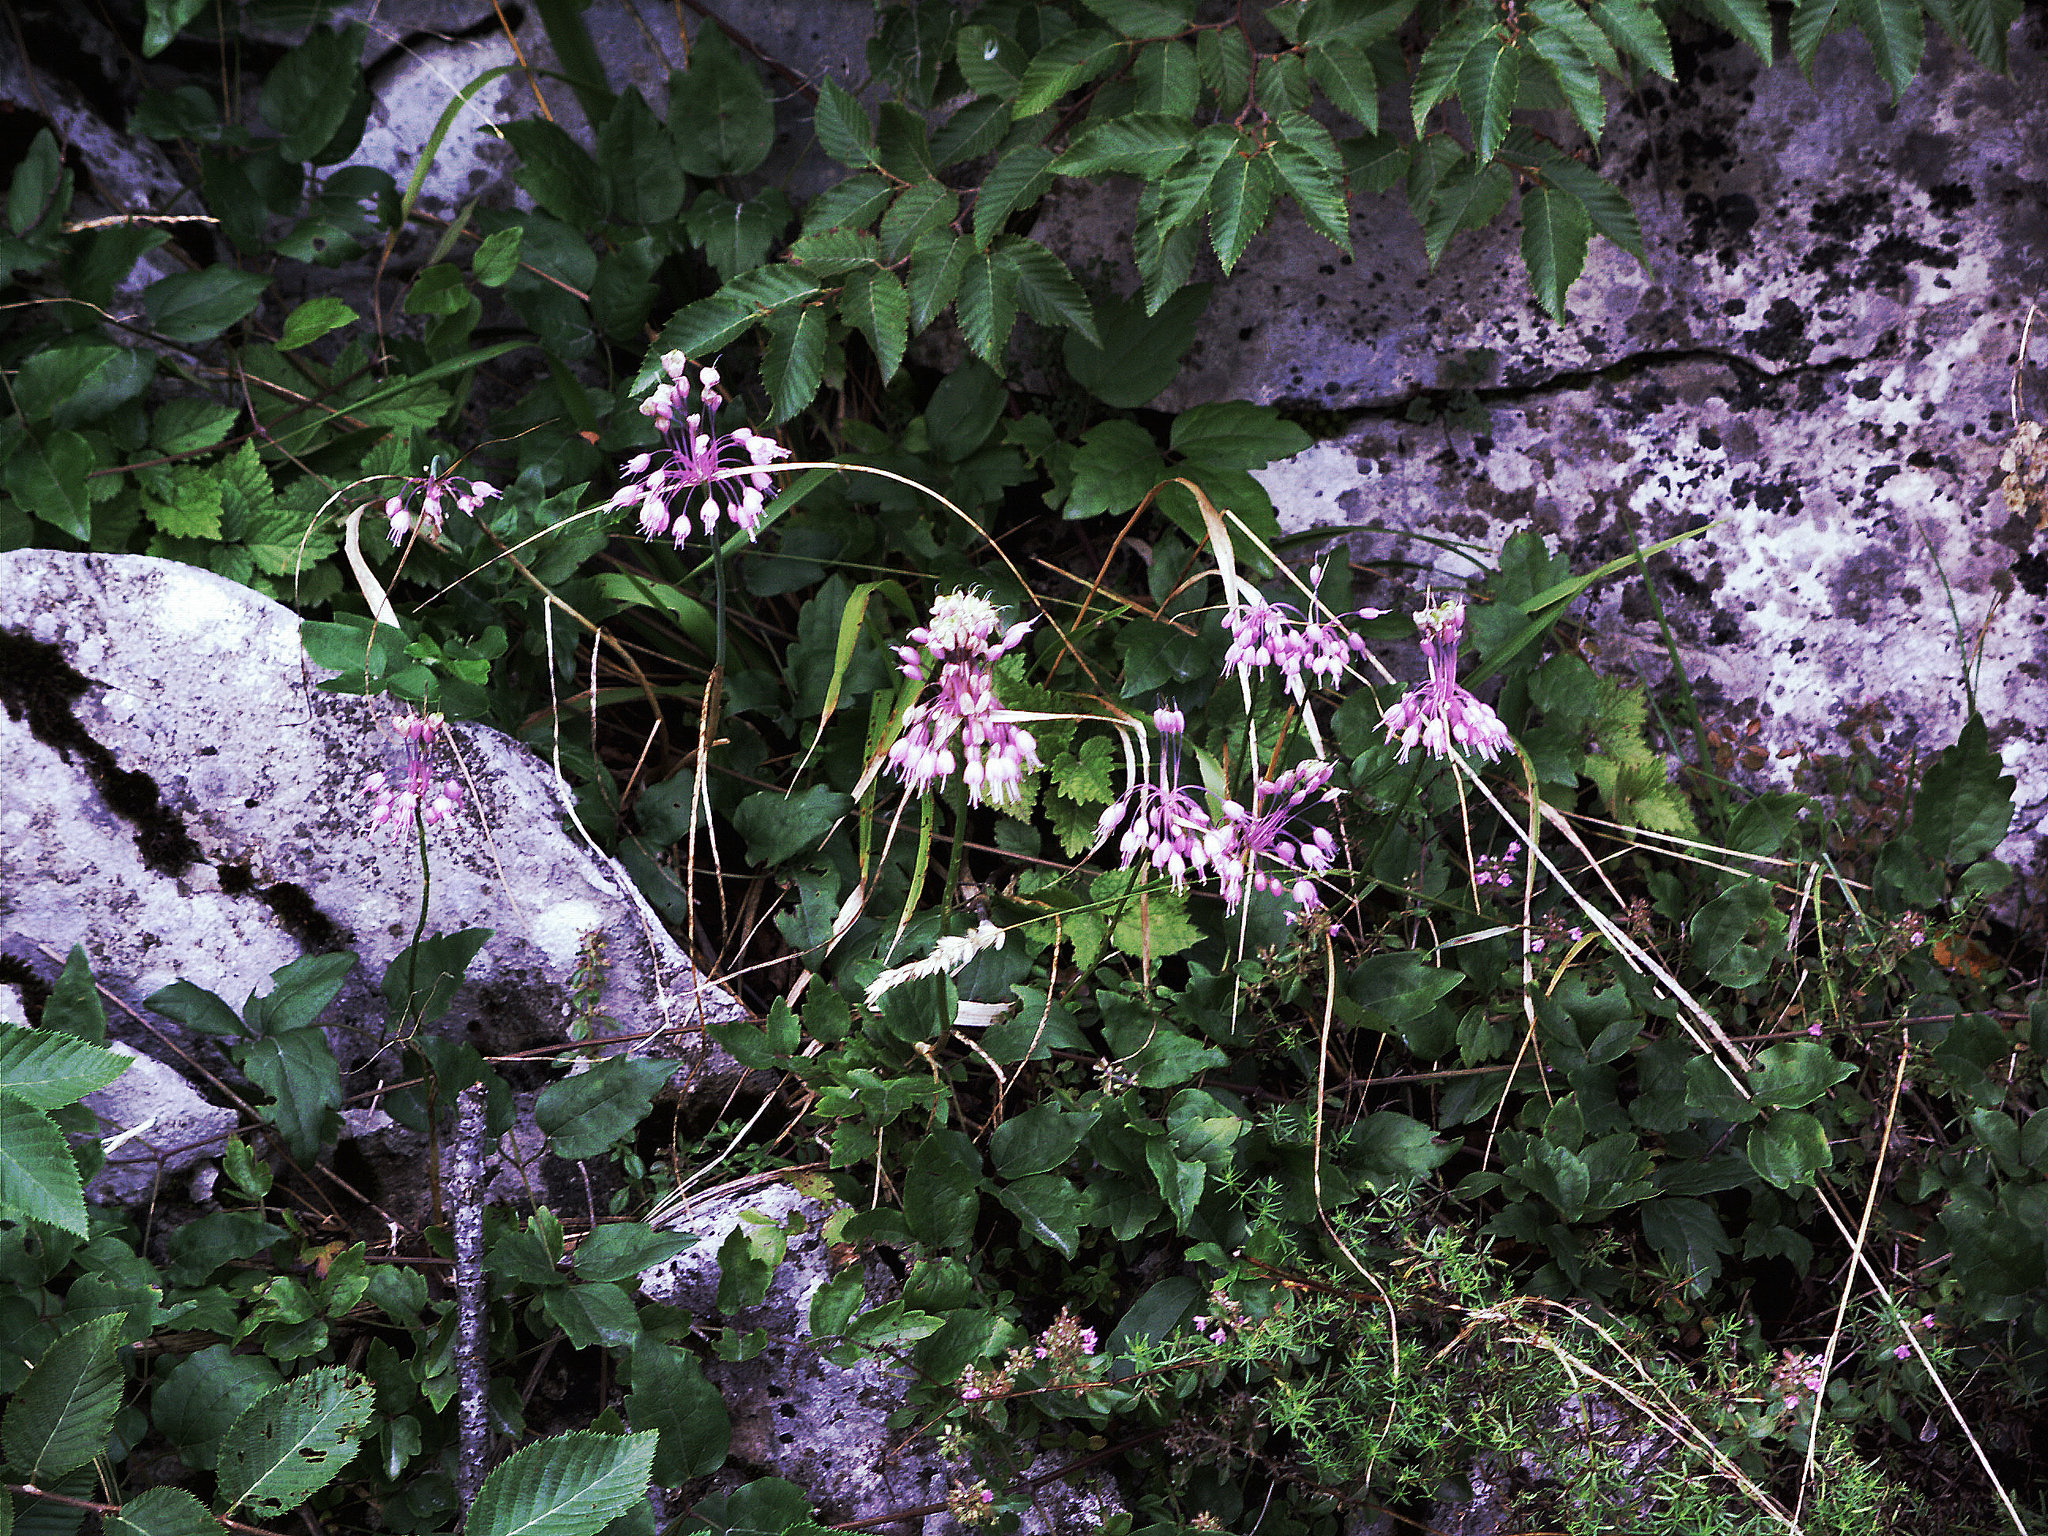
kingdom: Plantae
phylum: Tracheophyta
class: Liliopsida
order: Asparagales
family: Amaryllidaceae
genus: Allium
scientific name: Allium carinatum
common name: Keeled garlic
